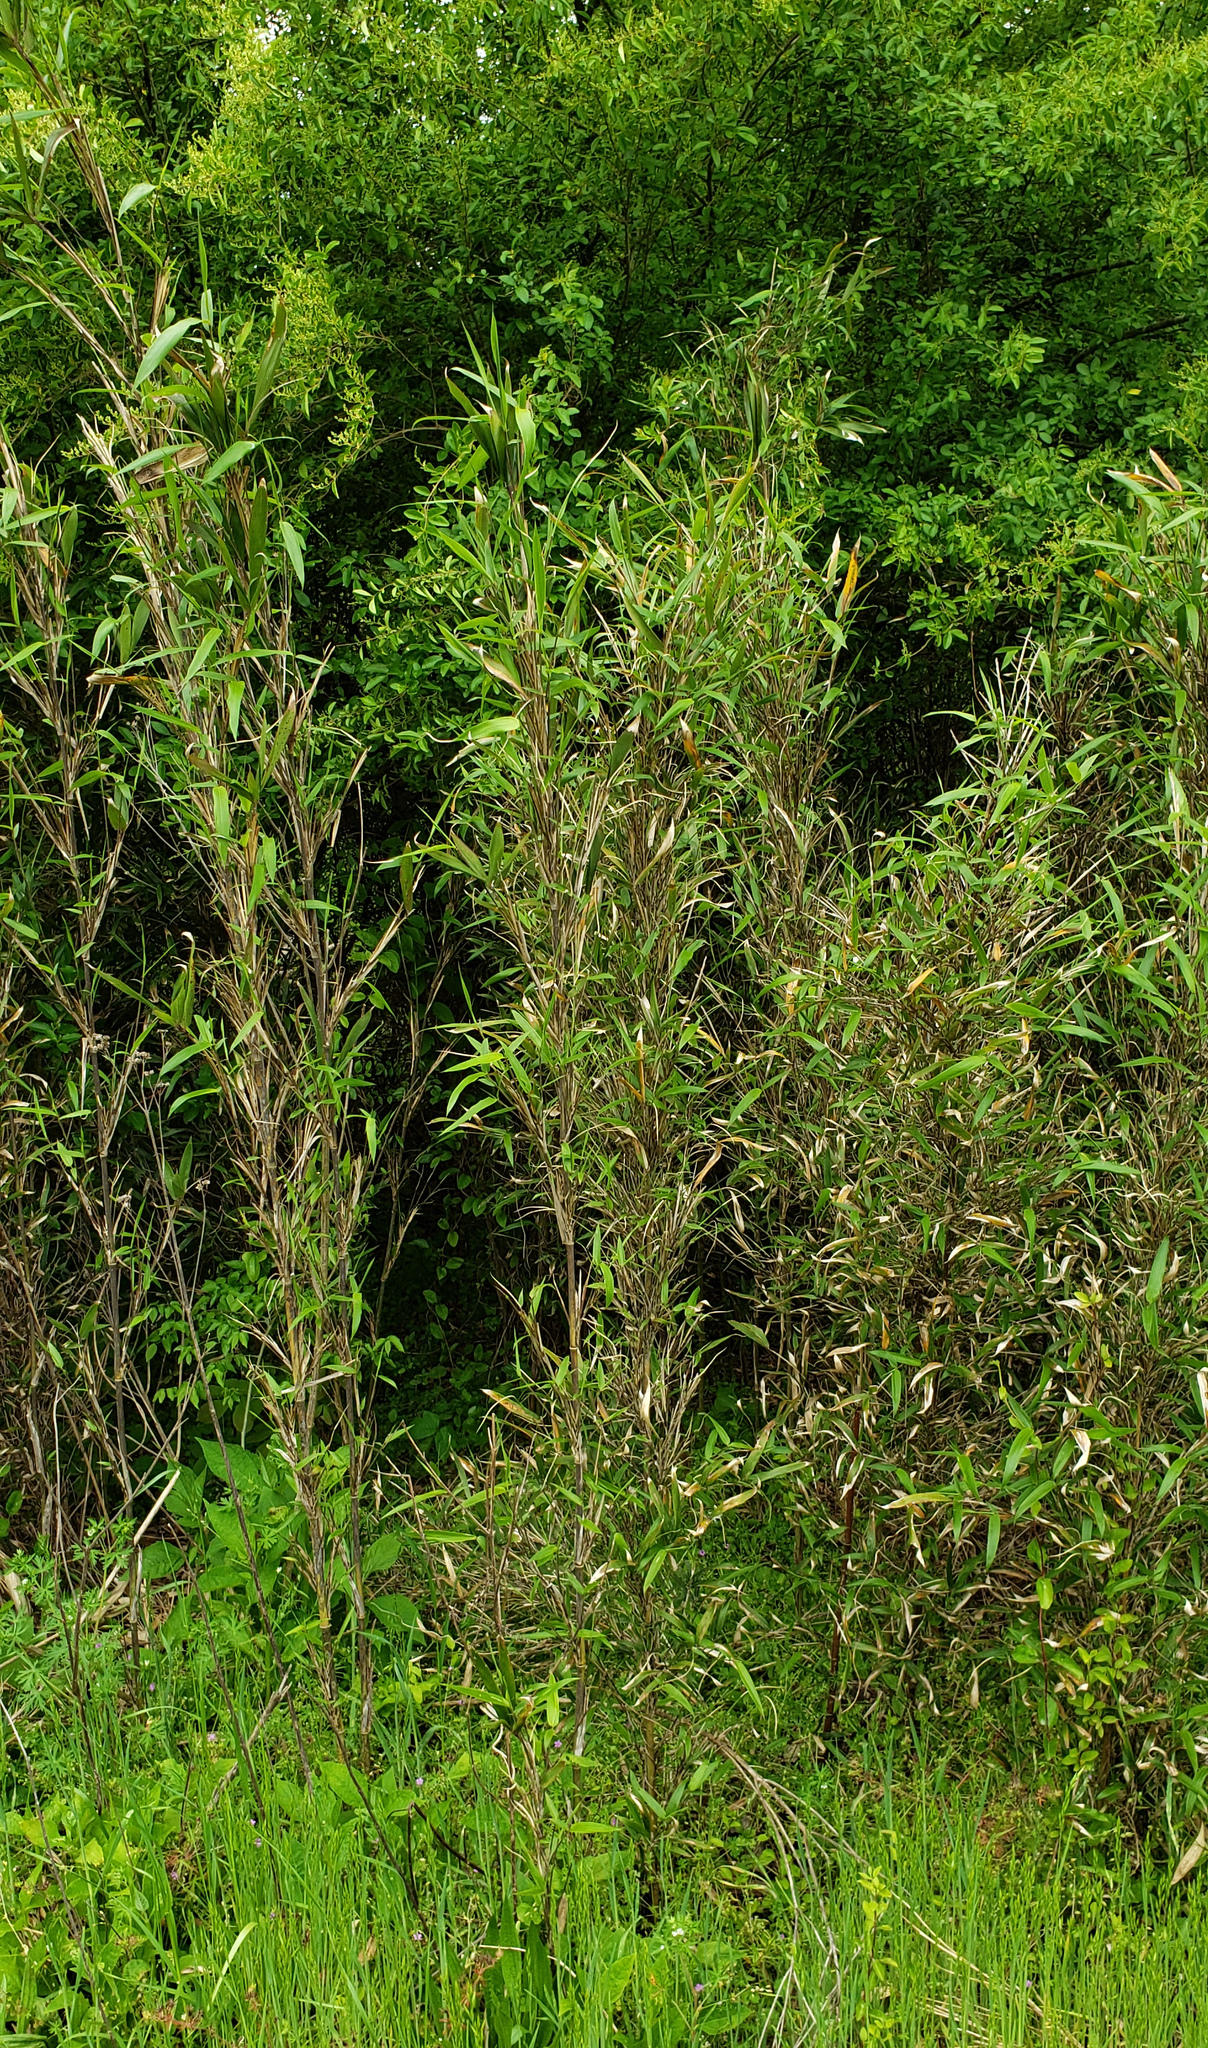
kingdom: Plantae
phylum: Tracheophyta
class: Liliopsida
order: Poales
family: Poaceae
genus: Arundinaria
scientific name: Arundinaria gigantea
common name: Giant cane
